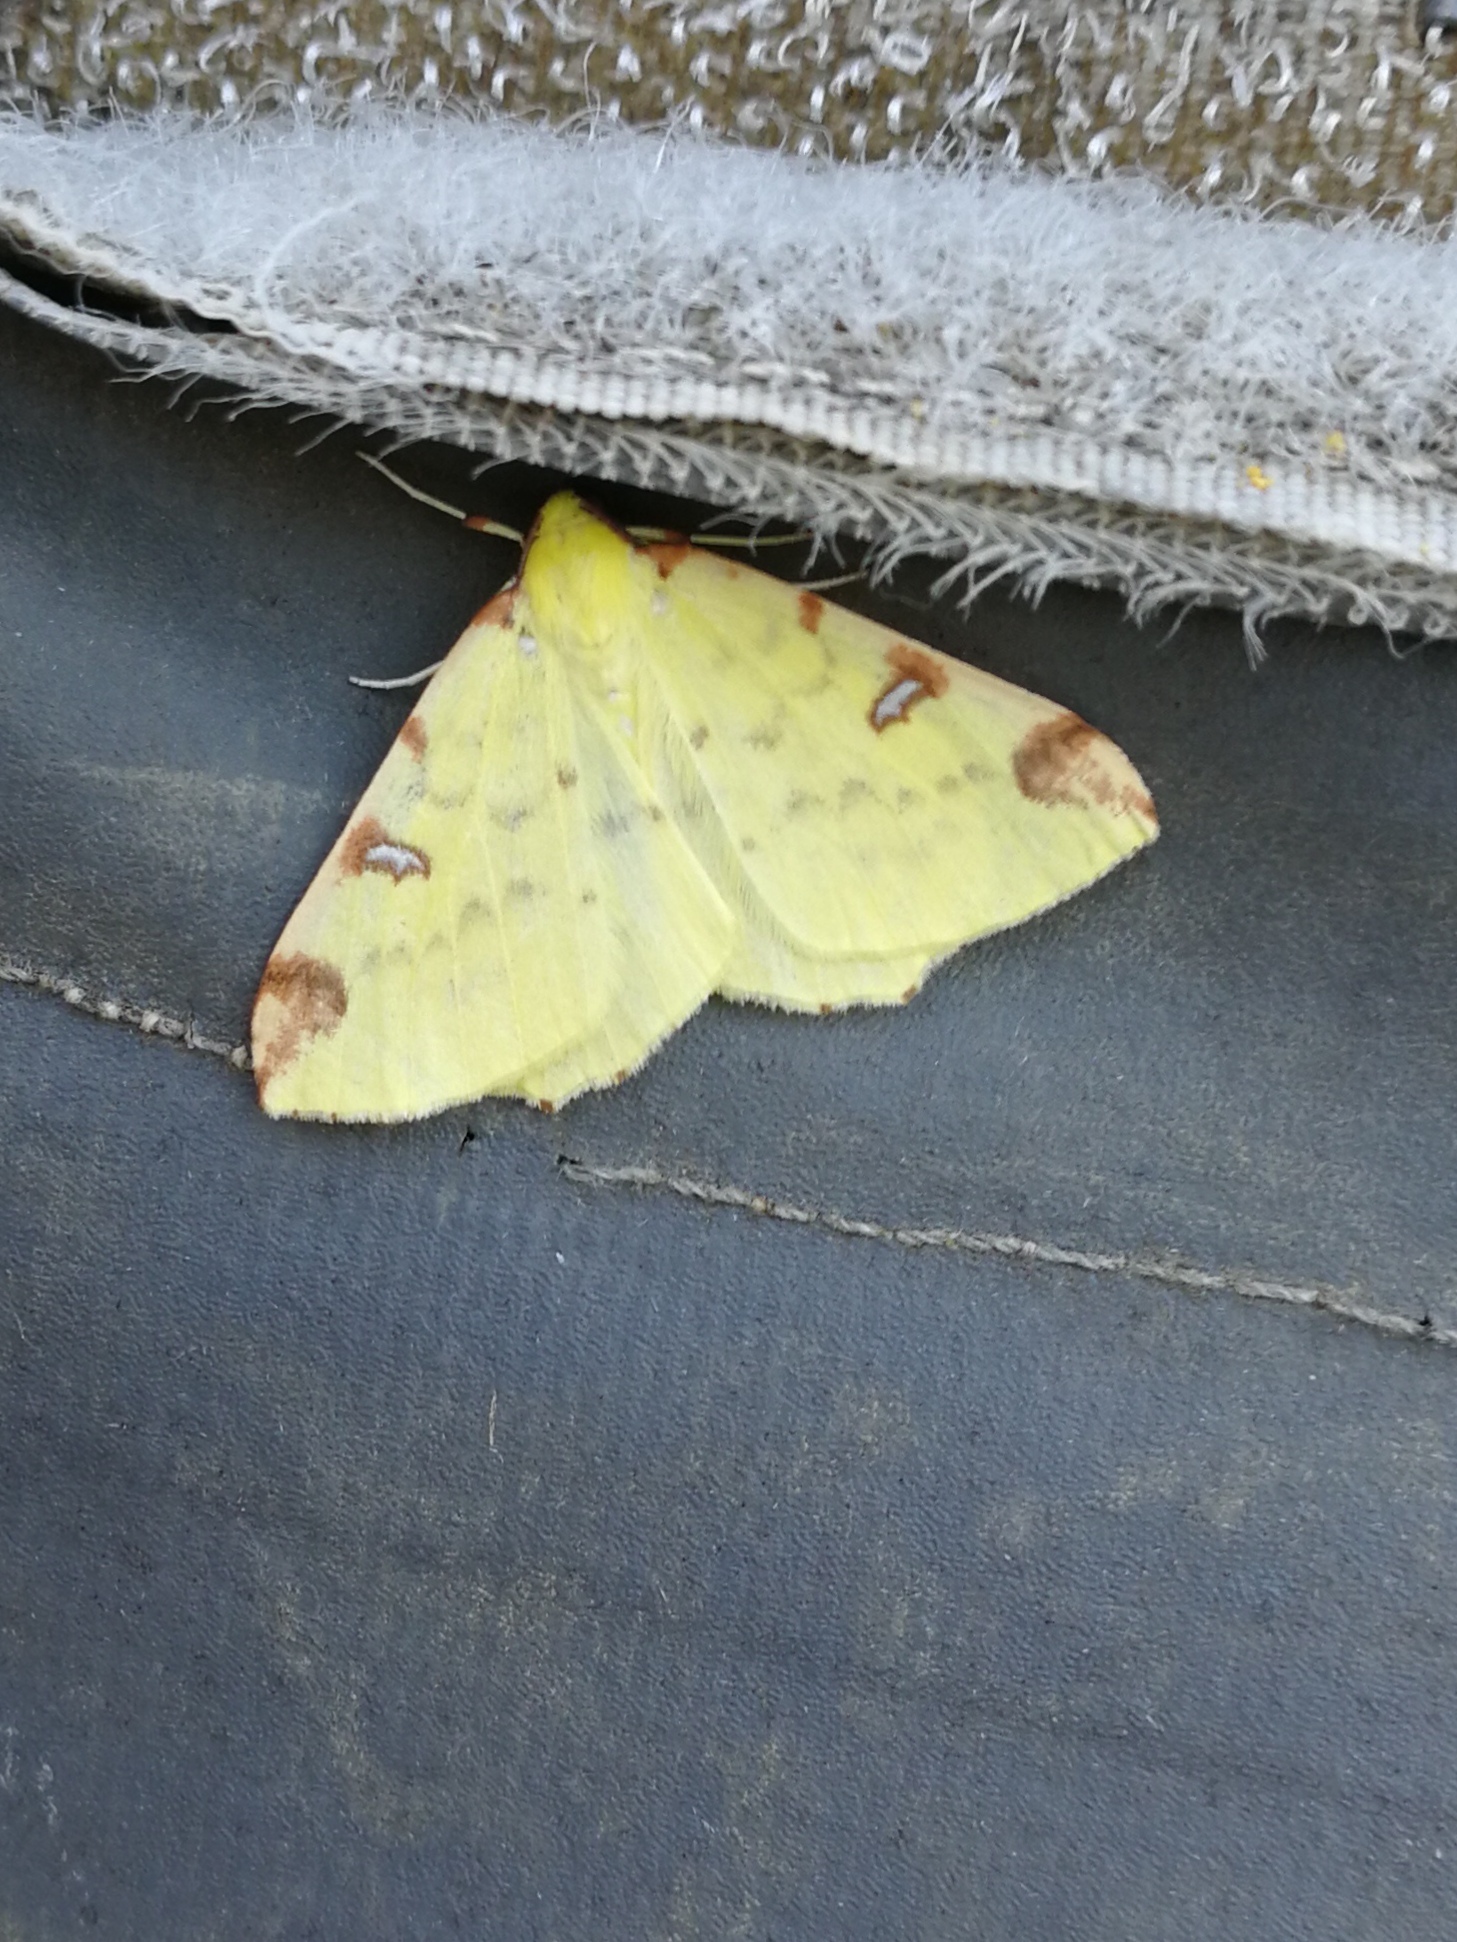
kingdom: Animalia
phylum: Arthropoda
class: Insecta
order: Lepidoptera
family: Geometridae
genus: Opisthograptis
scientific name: Opisthograptis luteolata
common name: Brimstone moth
